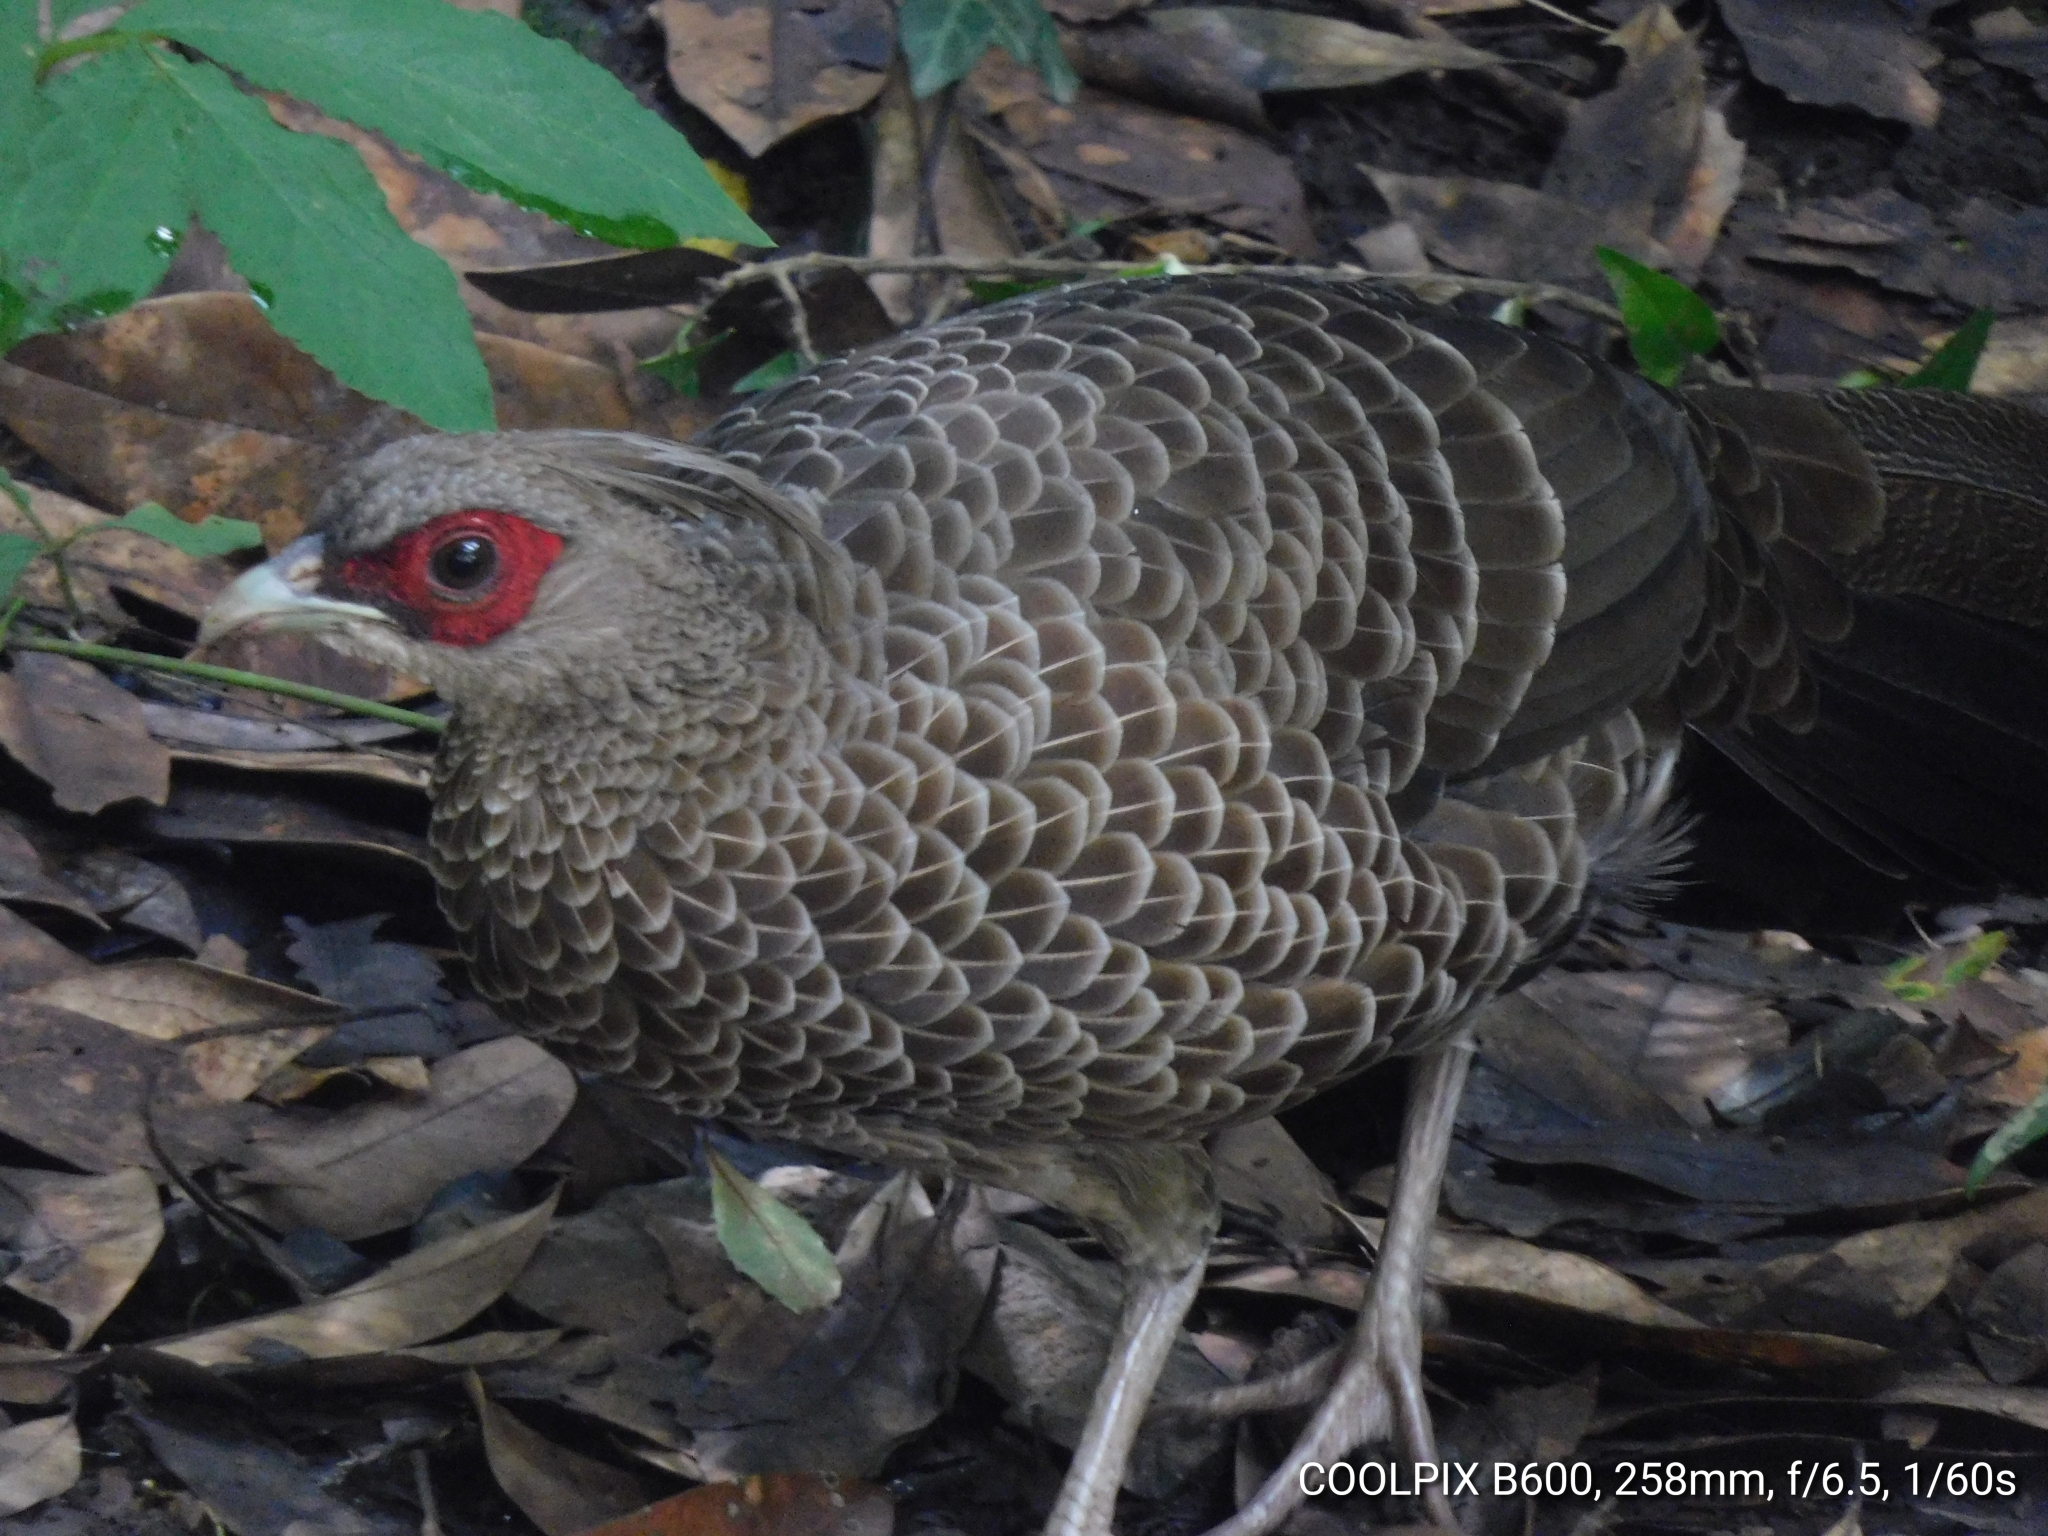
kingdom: Animalia
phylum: Chordata
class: Aves
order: Galliformes
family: Phasianidae
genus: Lophura
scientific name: Lophura leucomelanos
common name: Kalij pheasant
